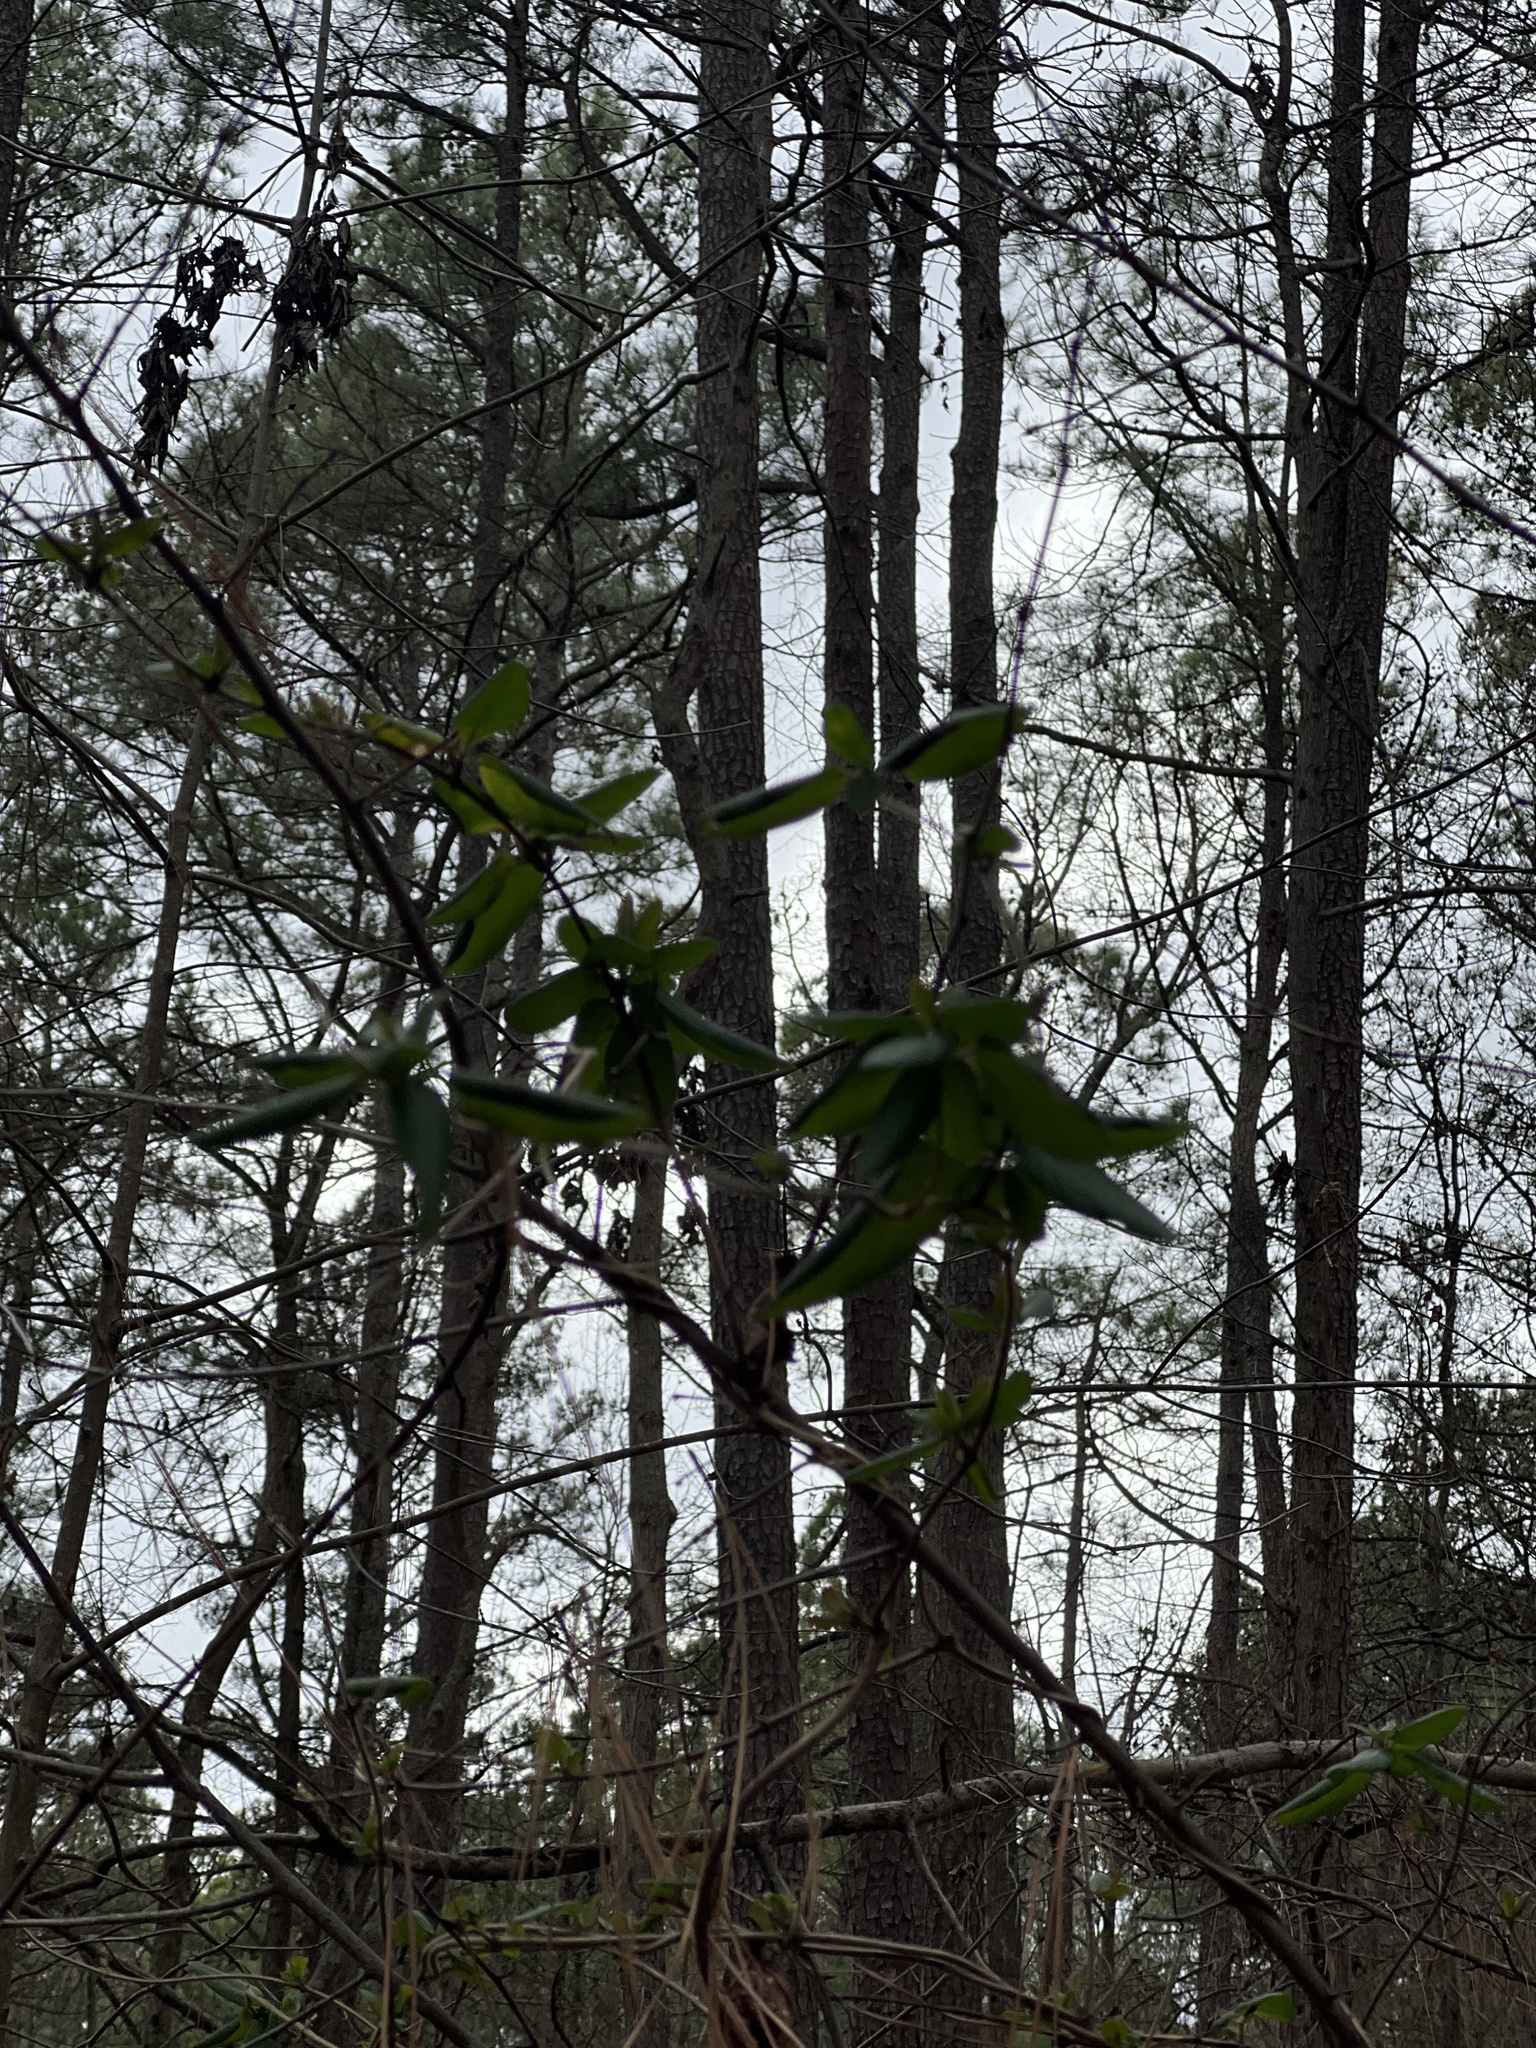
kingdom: Plantae
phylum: Tracheophyta
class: Magnoliopsida
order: Dipsacales
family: Caprifoliaceae
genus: Lonicera
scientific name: Lonicera japonica
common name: Japanese honeysuckle
